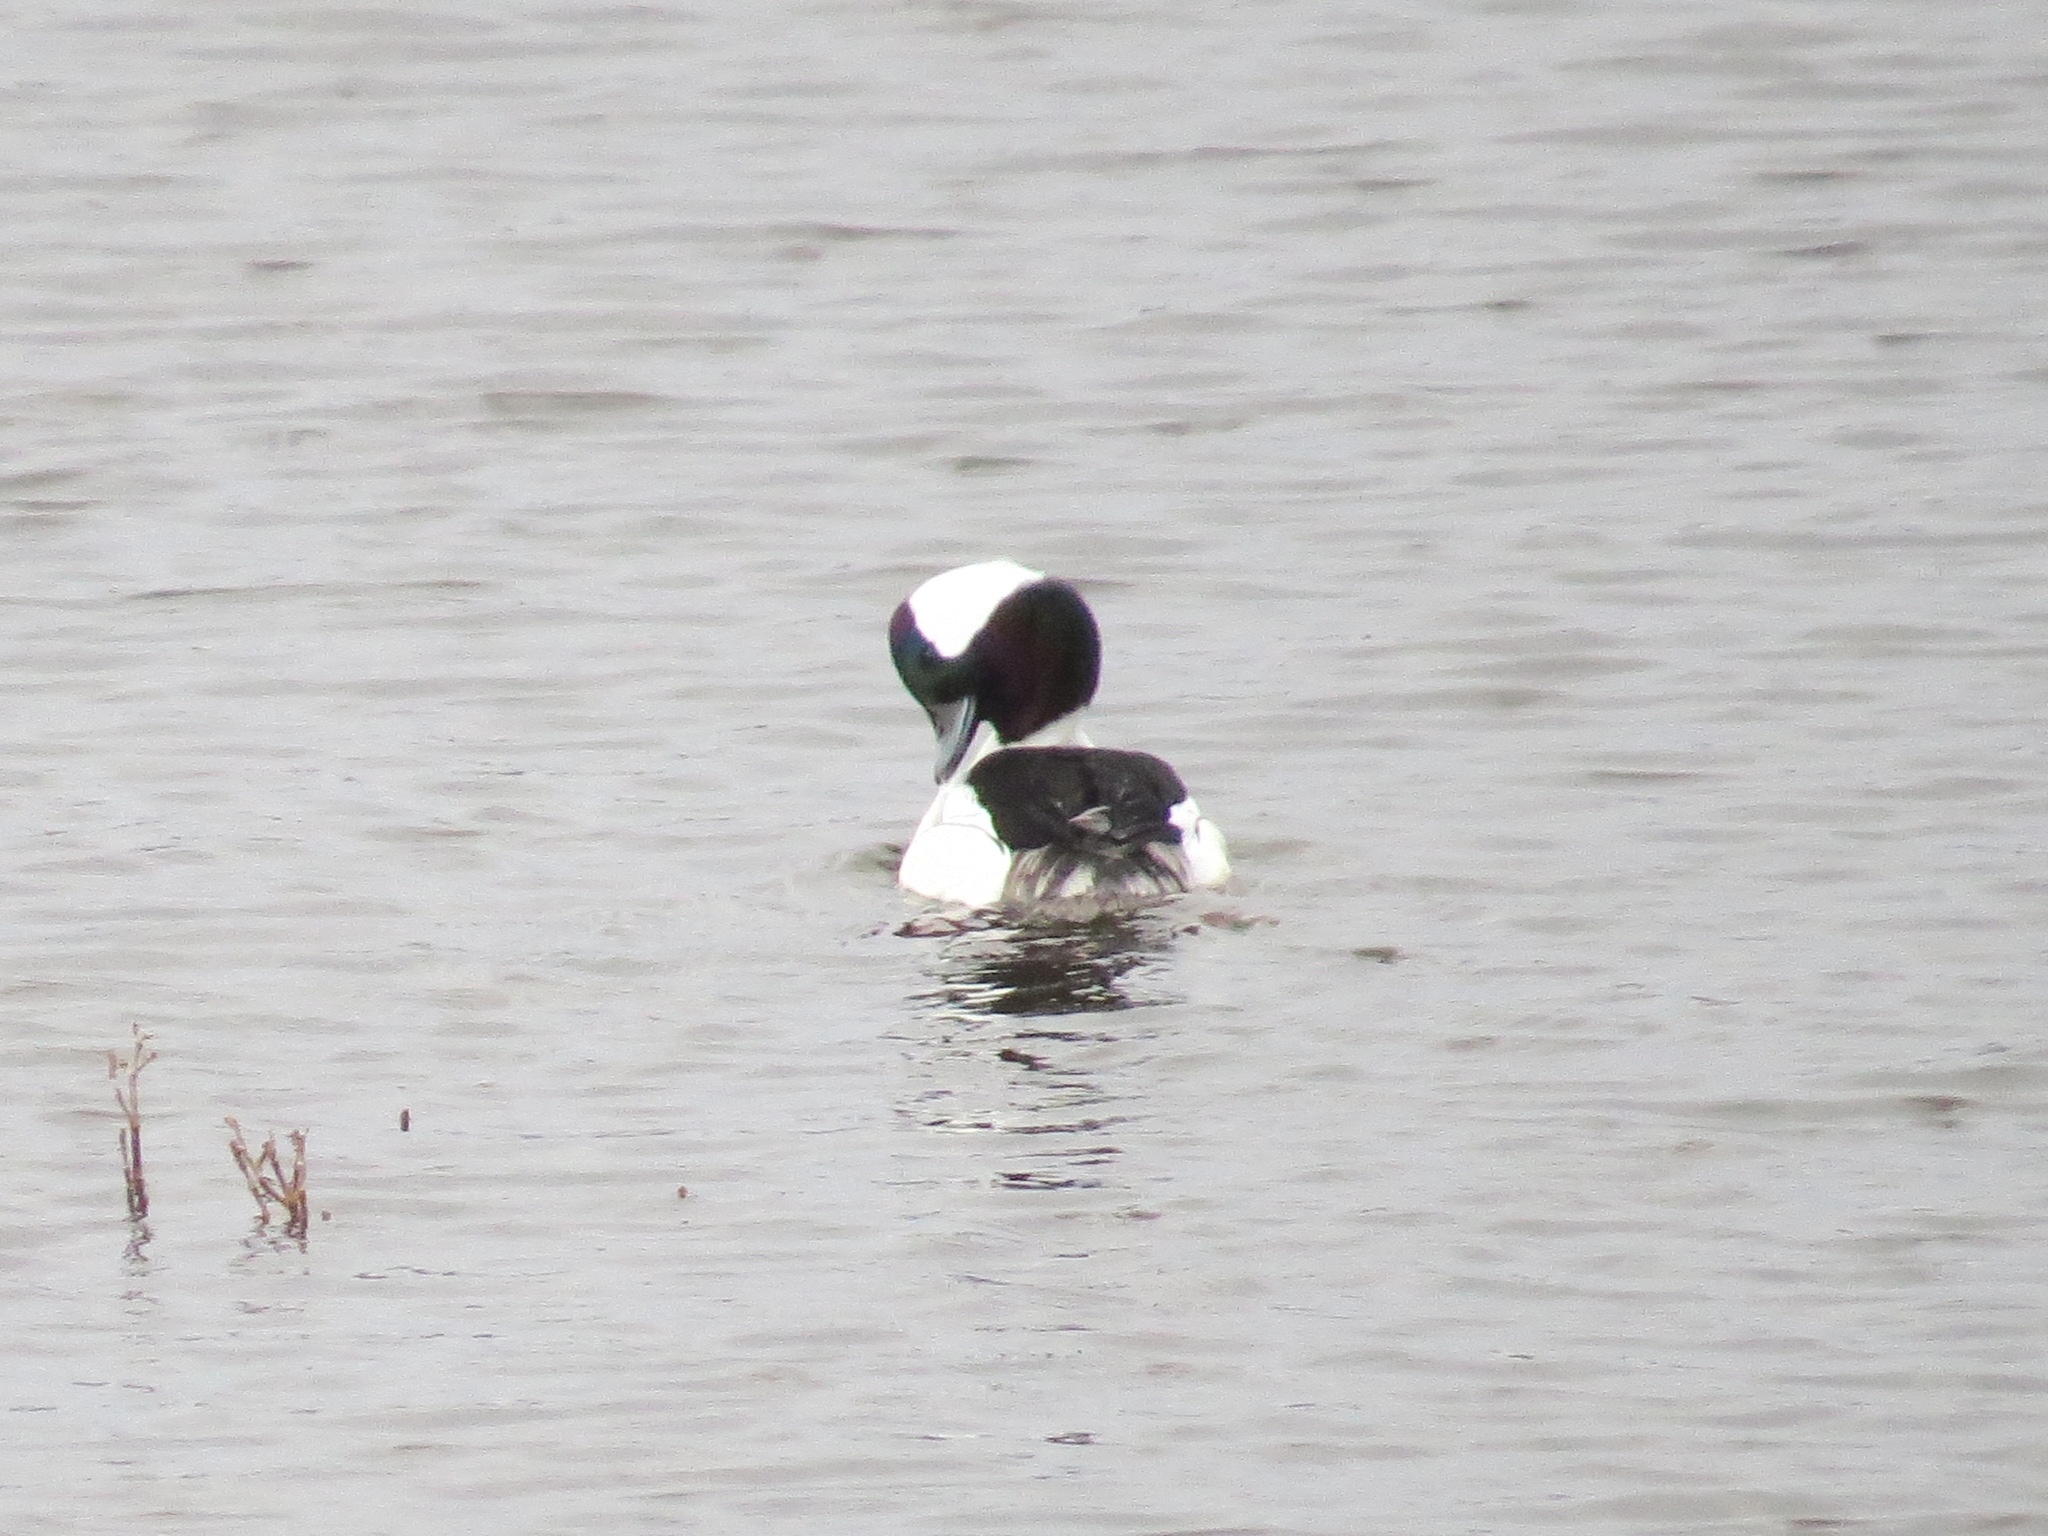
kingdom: Animalia
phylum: Chordata
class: Aves
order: Anseriformes
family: Anatidae
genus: Bucephala
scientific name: Bucephala albeola
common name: Bufflehead
